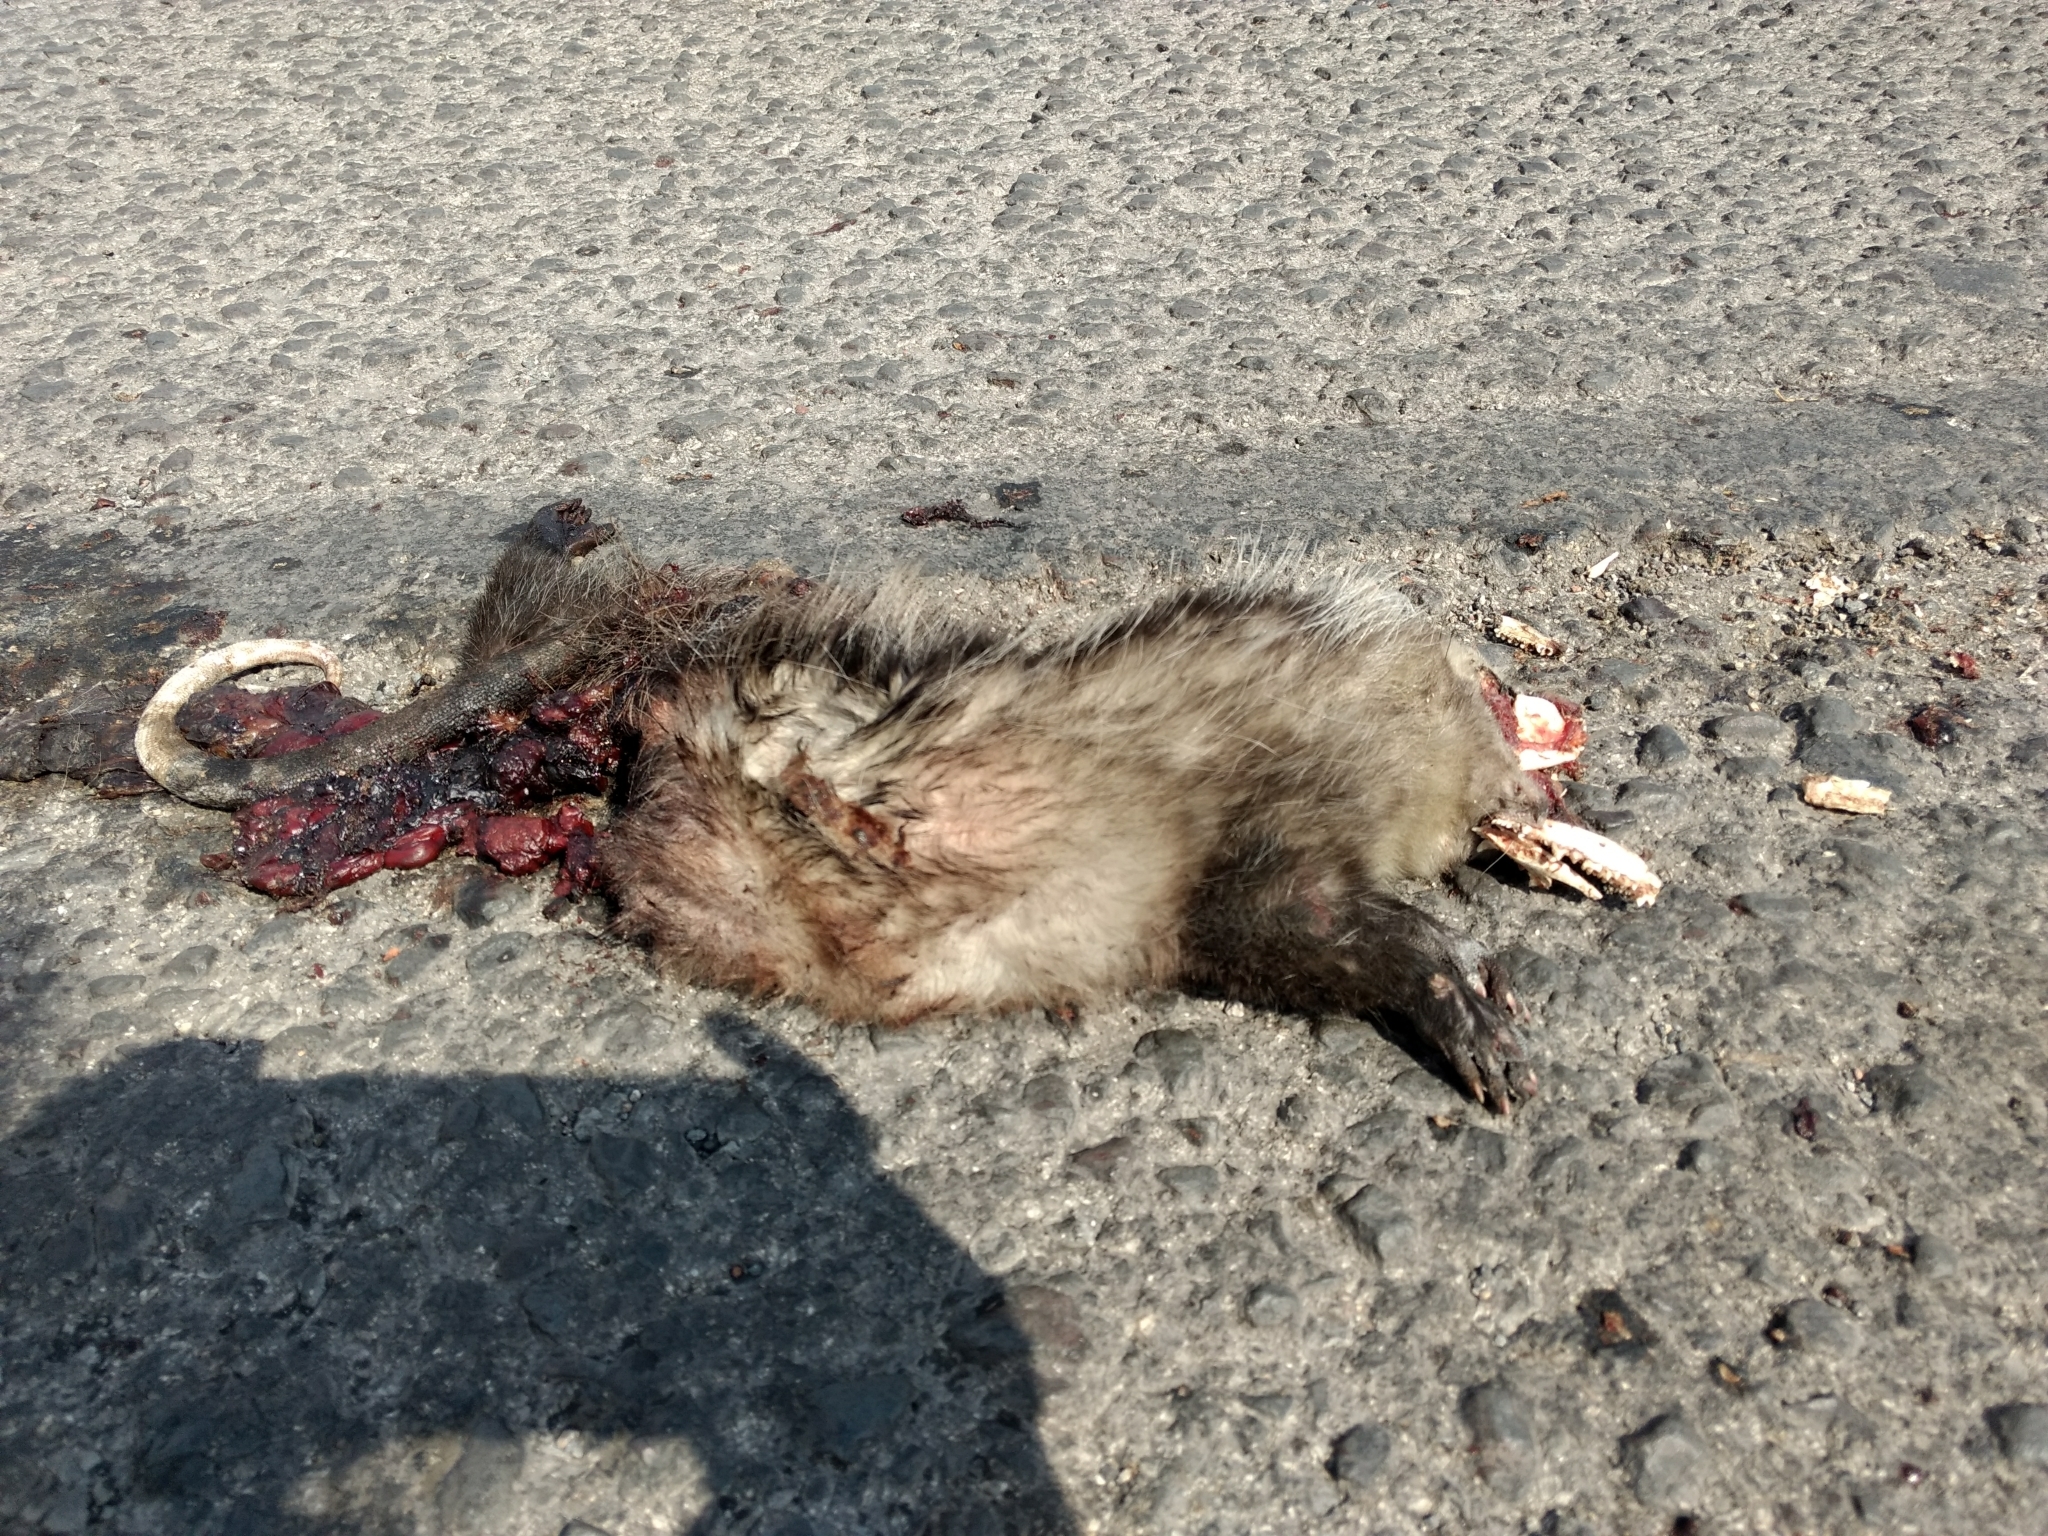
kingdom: Animalia
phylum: Chordata
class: Mammalia
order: Didelphimorphia
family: Didelphidae
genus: Didelphis
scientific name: Didelphis virginiana
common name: Virginia opossum
